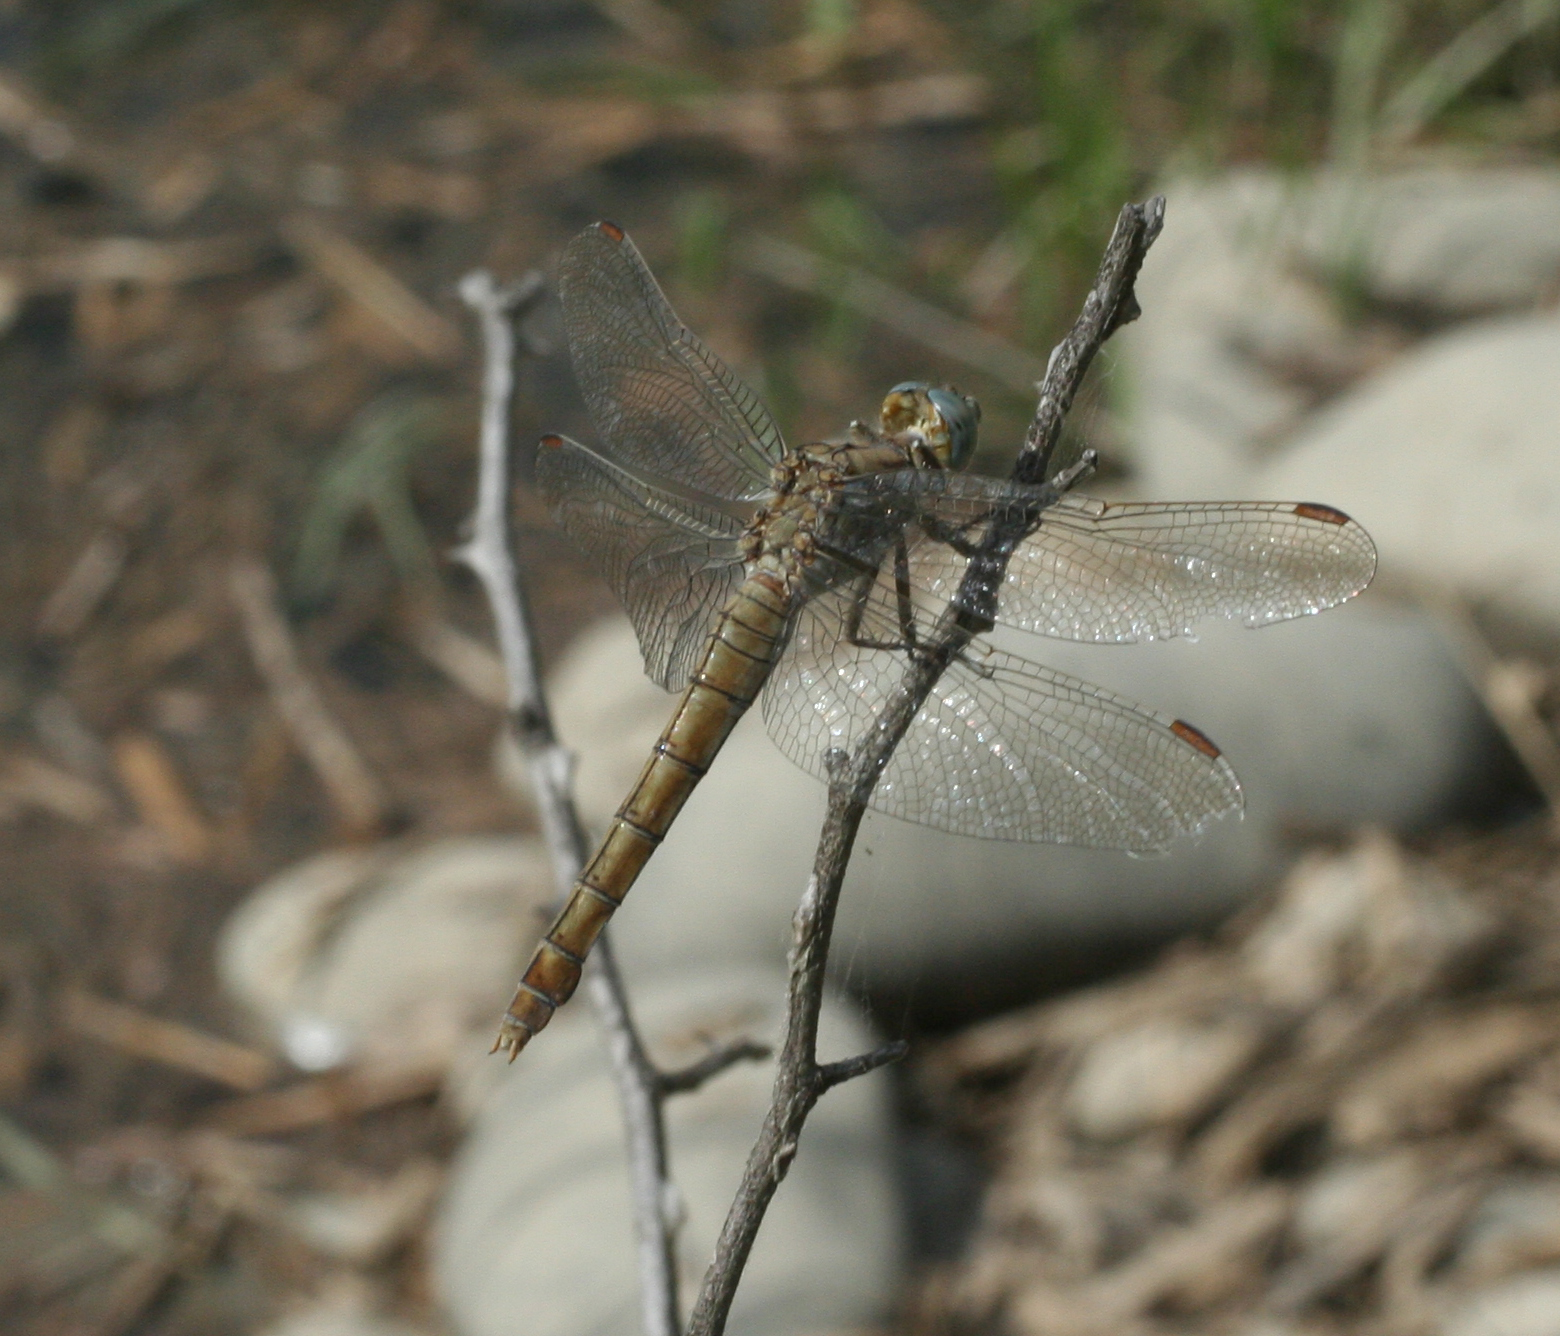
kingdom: Animalia
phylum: Arthropoda
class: Insecta
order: Odonata
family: Libellulidae
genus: Orthetrum
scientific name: Orthetrum brunneum
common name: Southern skimmer
